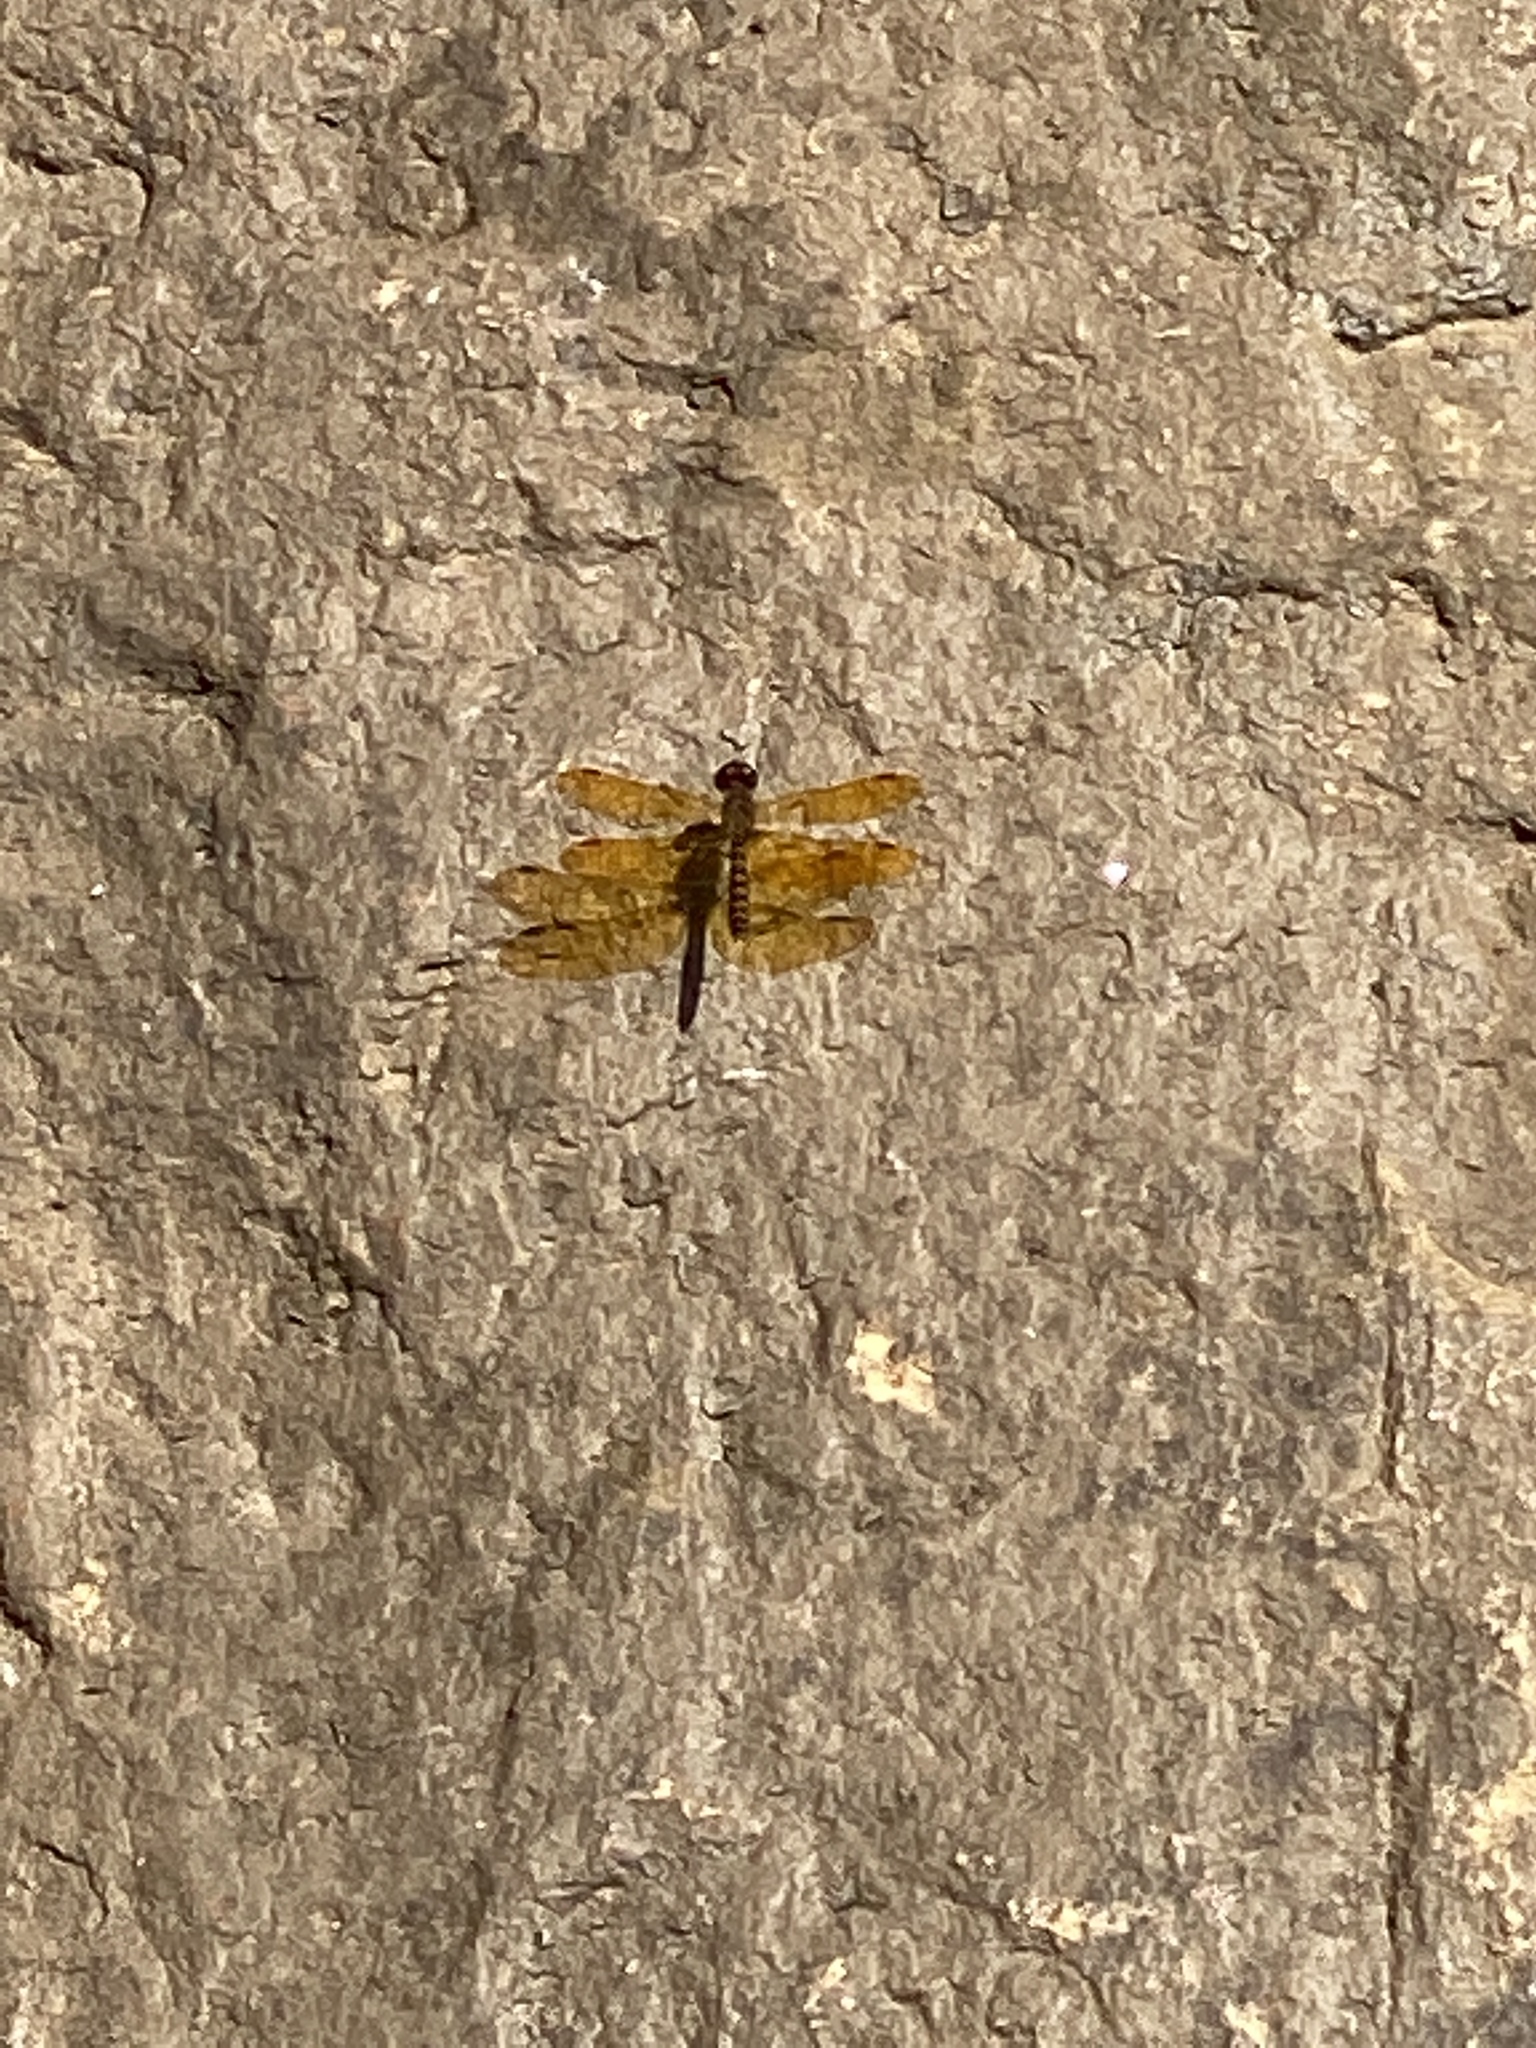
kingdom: Animalia
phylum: Arthropoda
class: Insecta
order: Odonata
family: Libellulidae
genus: Perithemis
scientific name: Perithemis tenera
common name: Eastern amberwing
